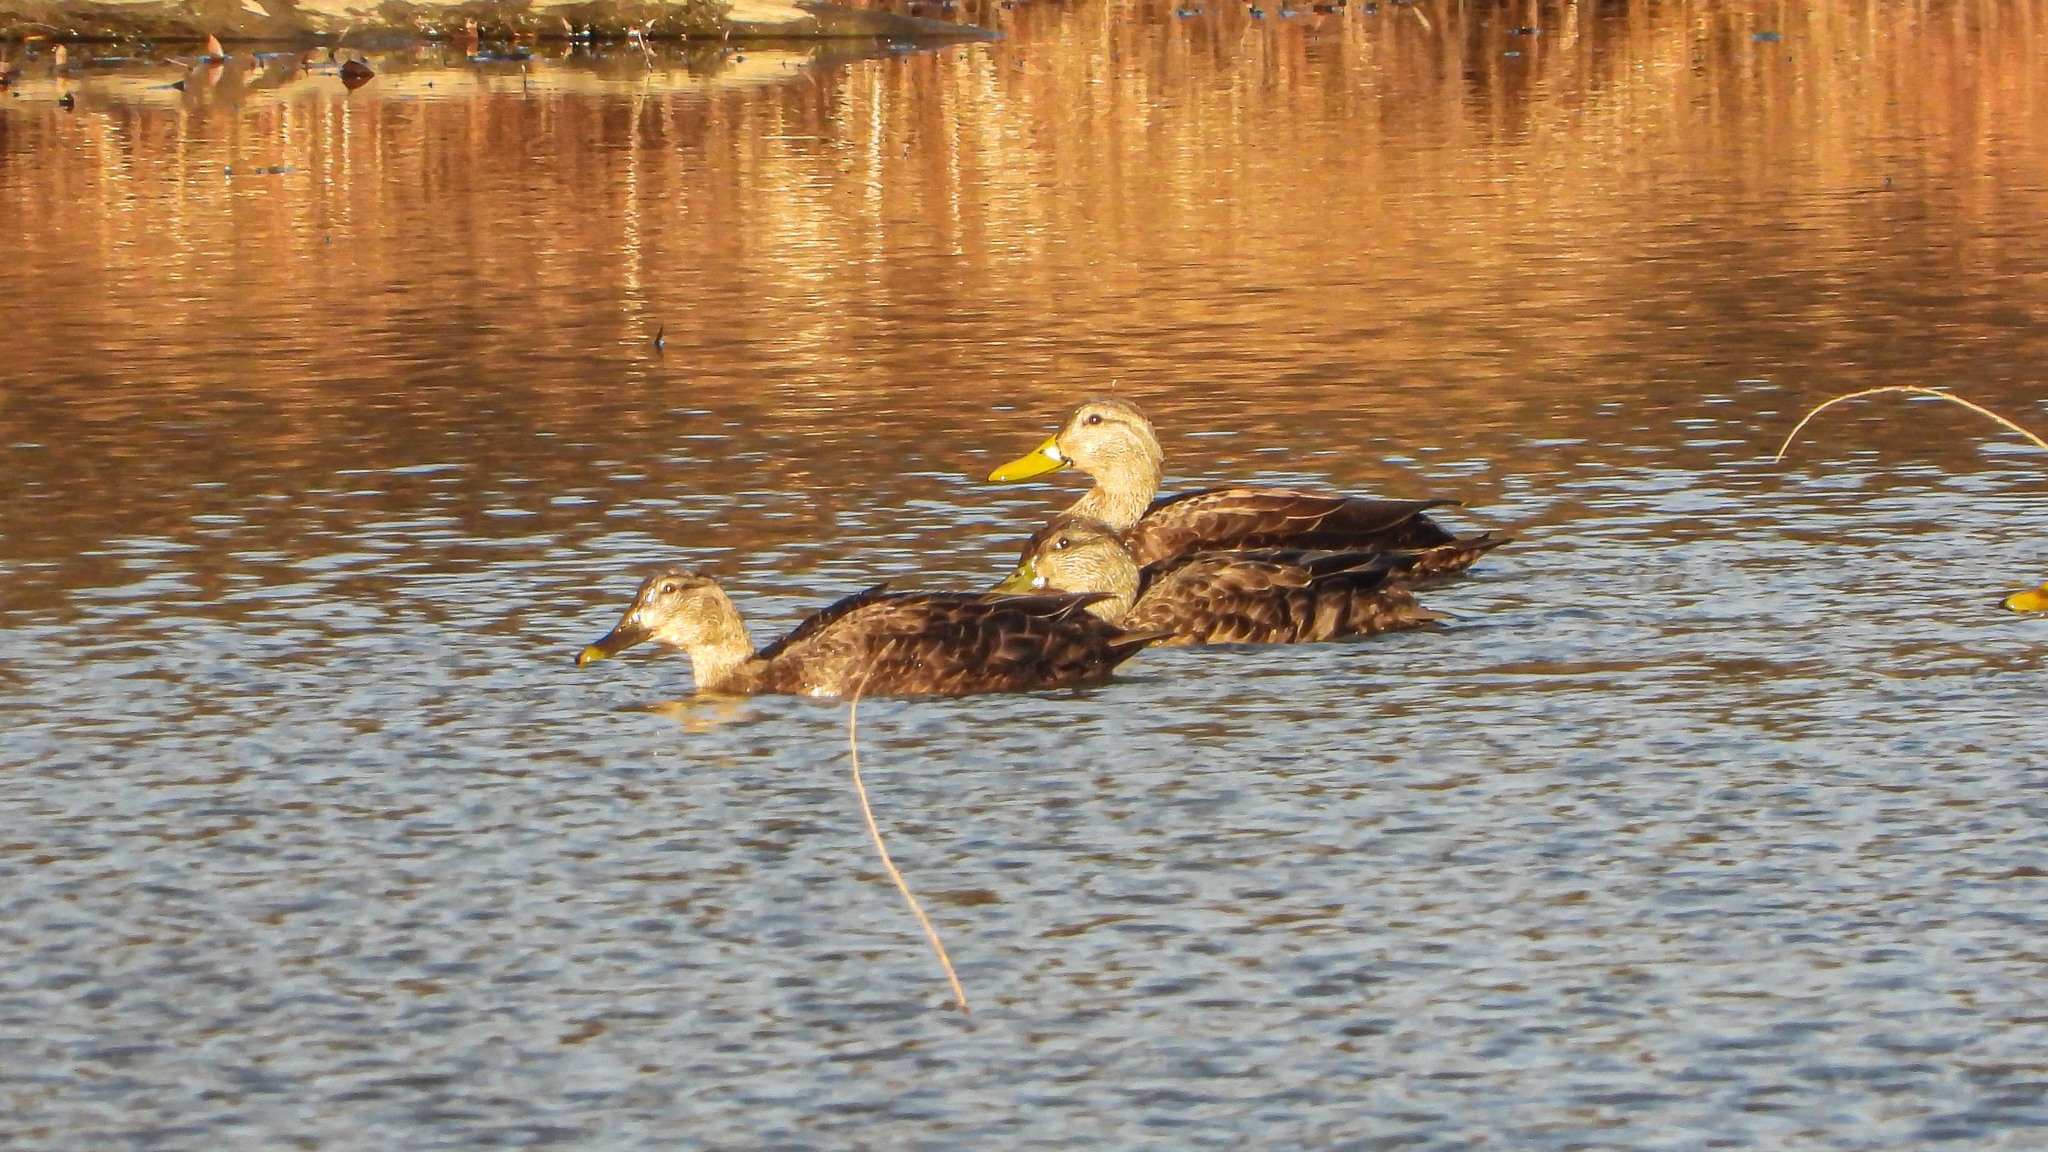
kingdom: Animalia
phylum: Chordata
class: Aves
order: Anseriformes
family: Anatidae
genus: Anas
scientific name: Anas rubripes
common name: American black duck
